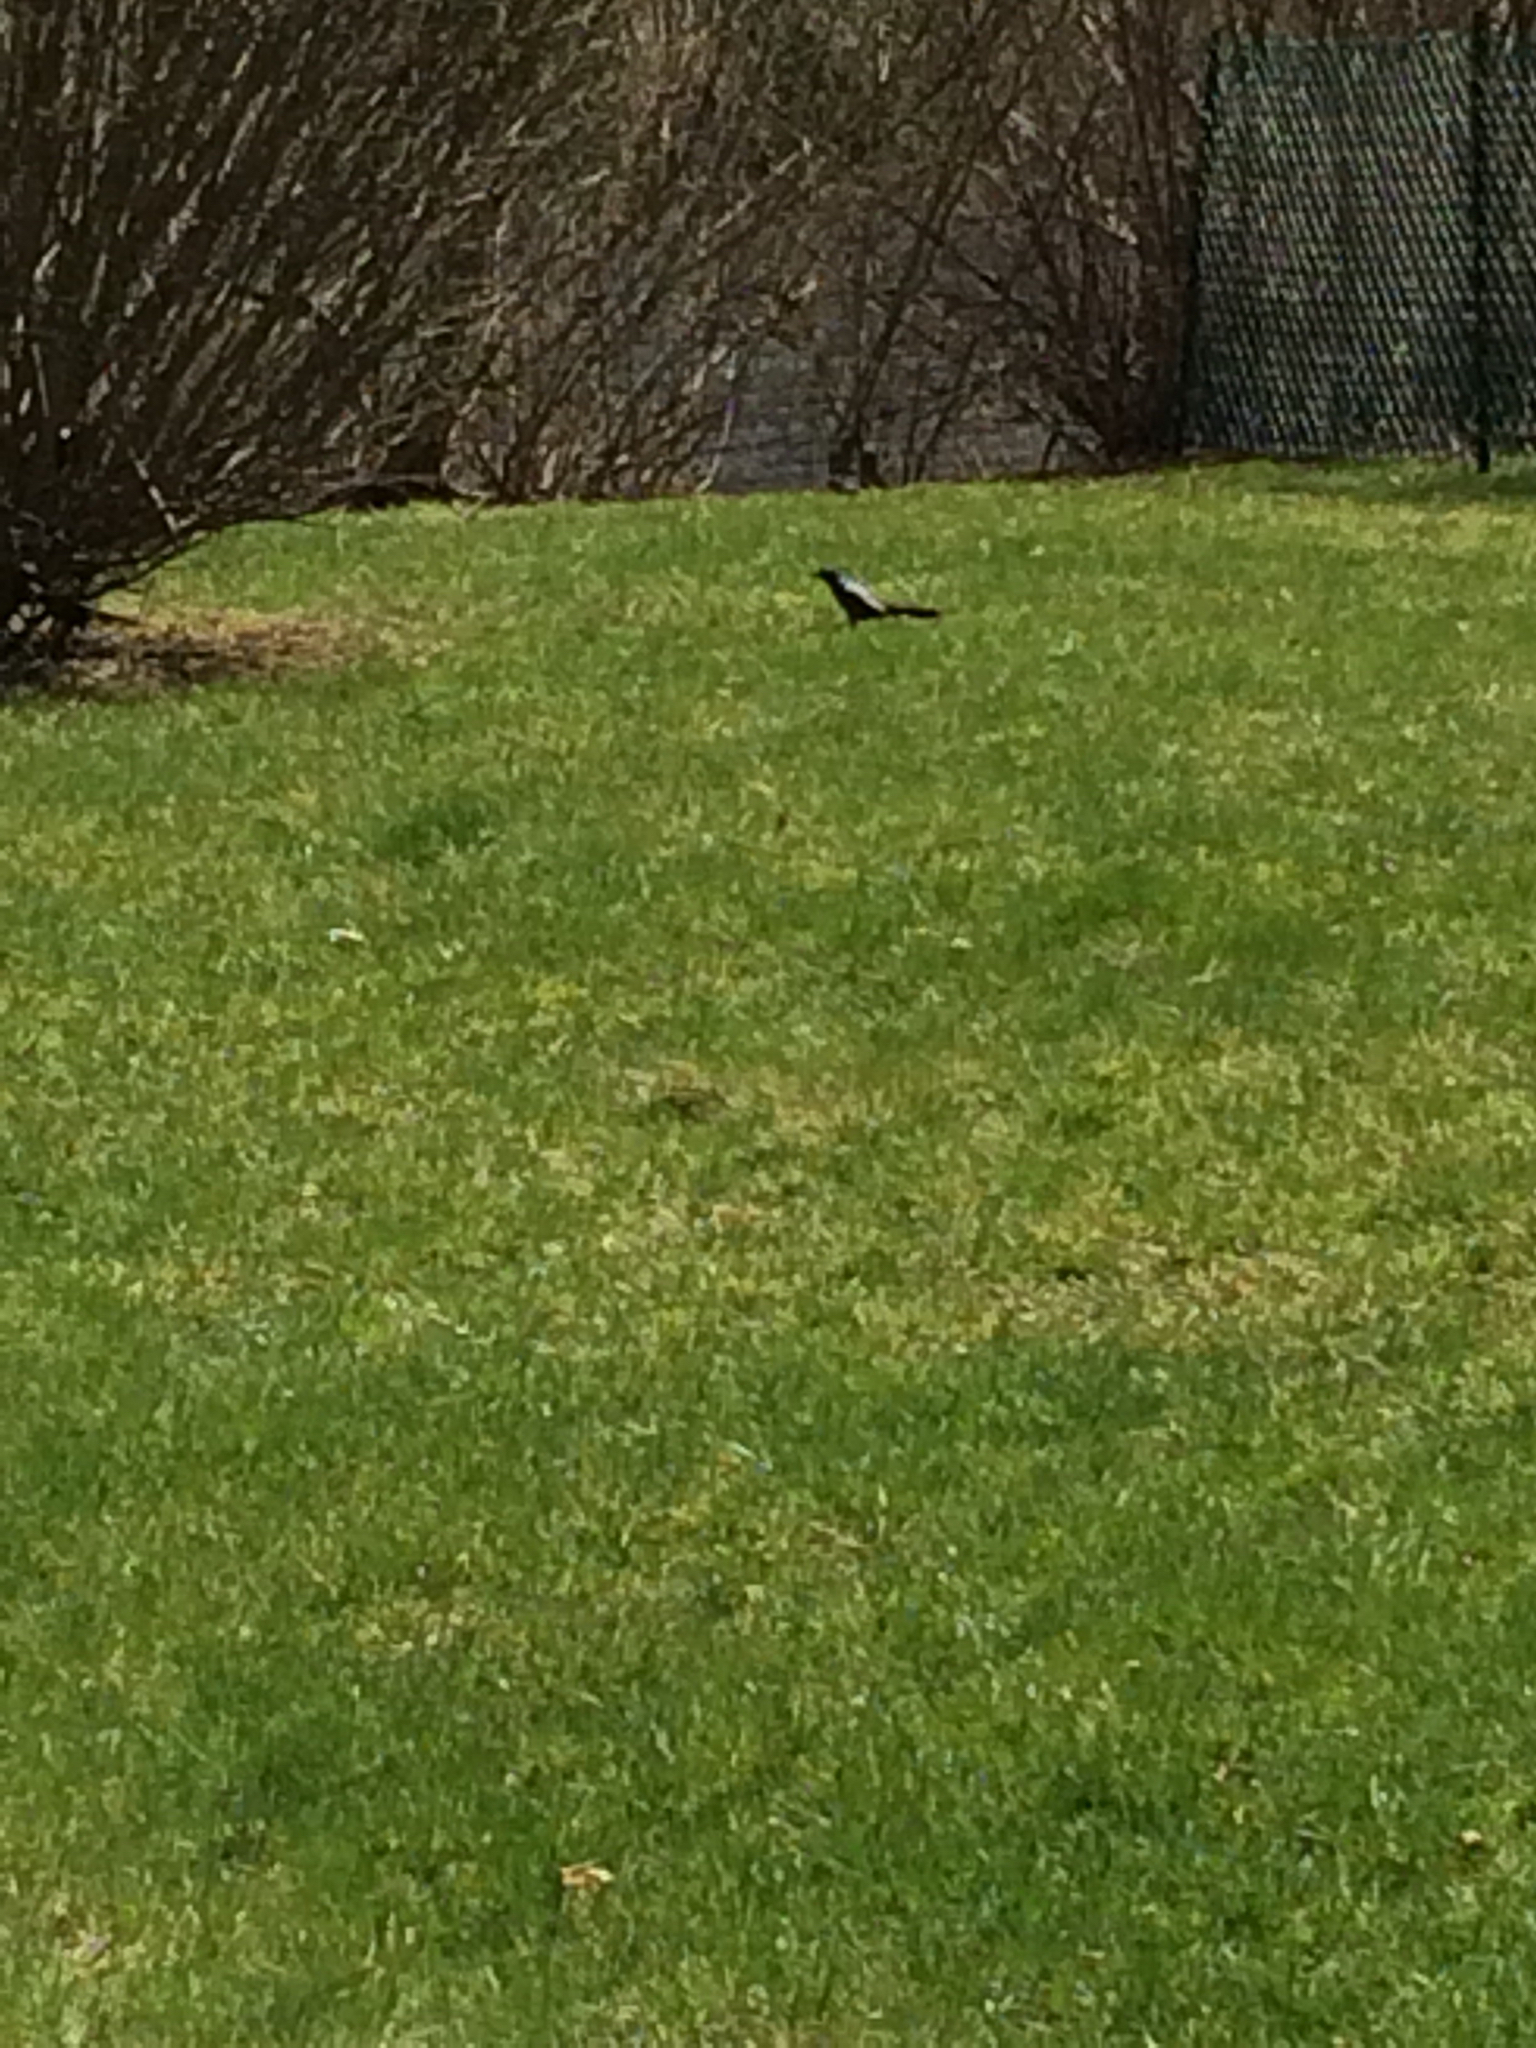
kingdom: Animalia
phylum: Chordata
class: Aves
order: Passeriformes
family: Icteridae
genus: Quiscalus
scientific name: Quiscalus quiscula
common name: Common grackle
